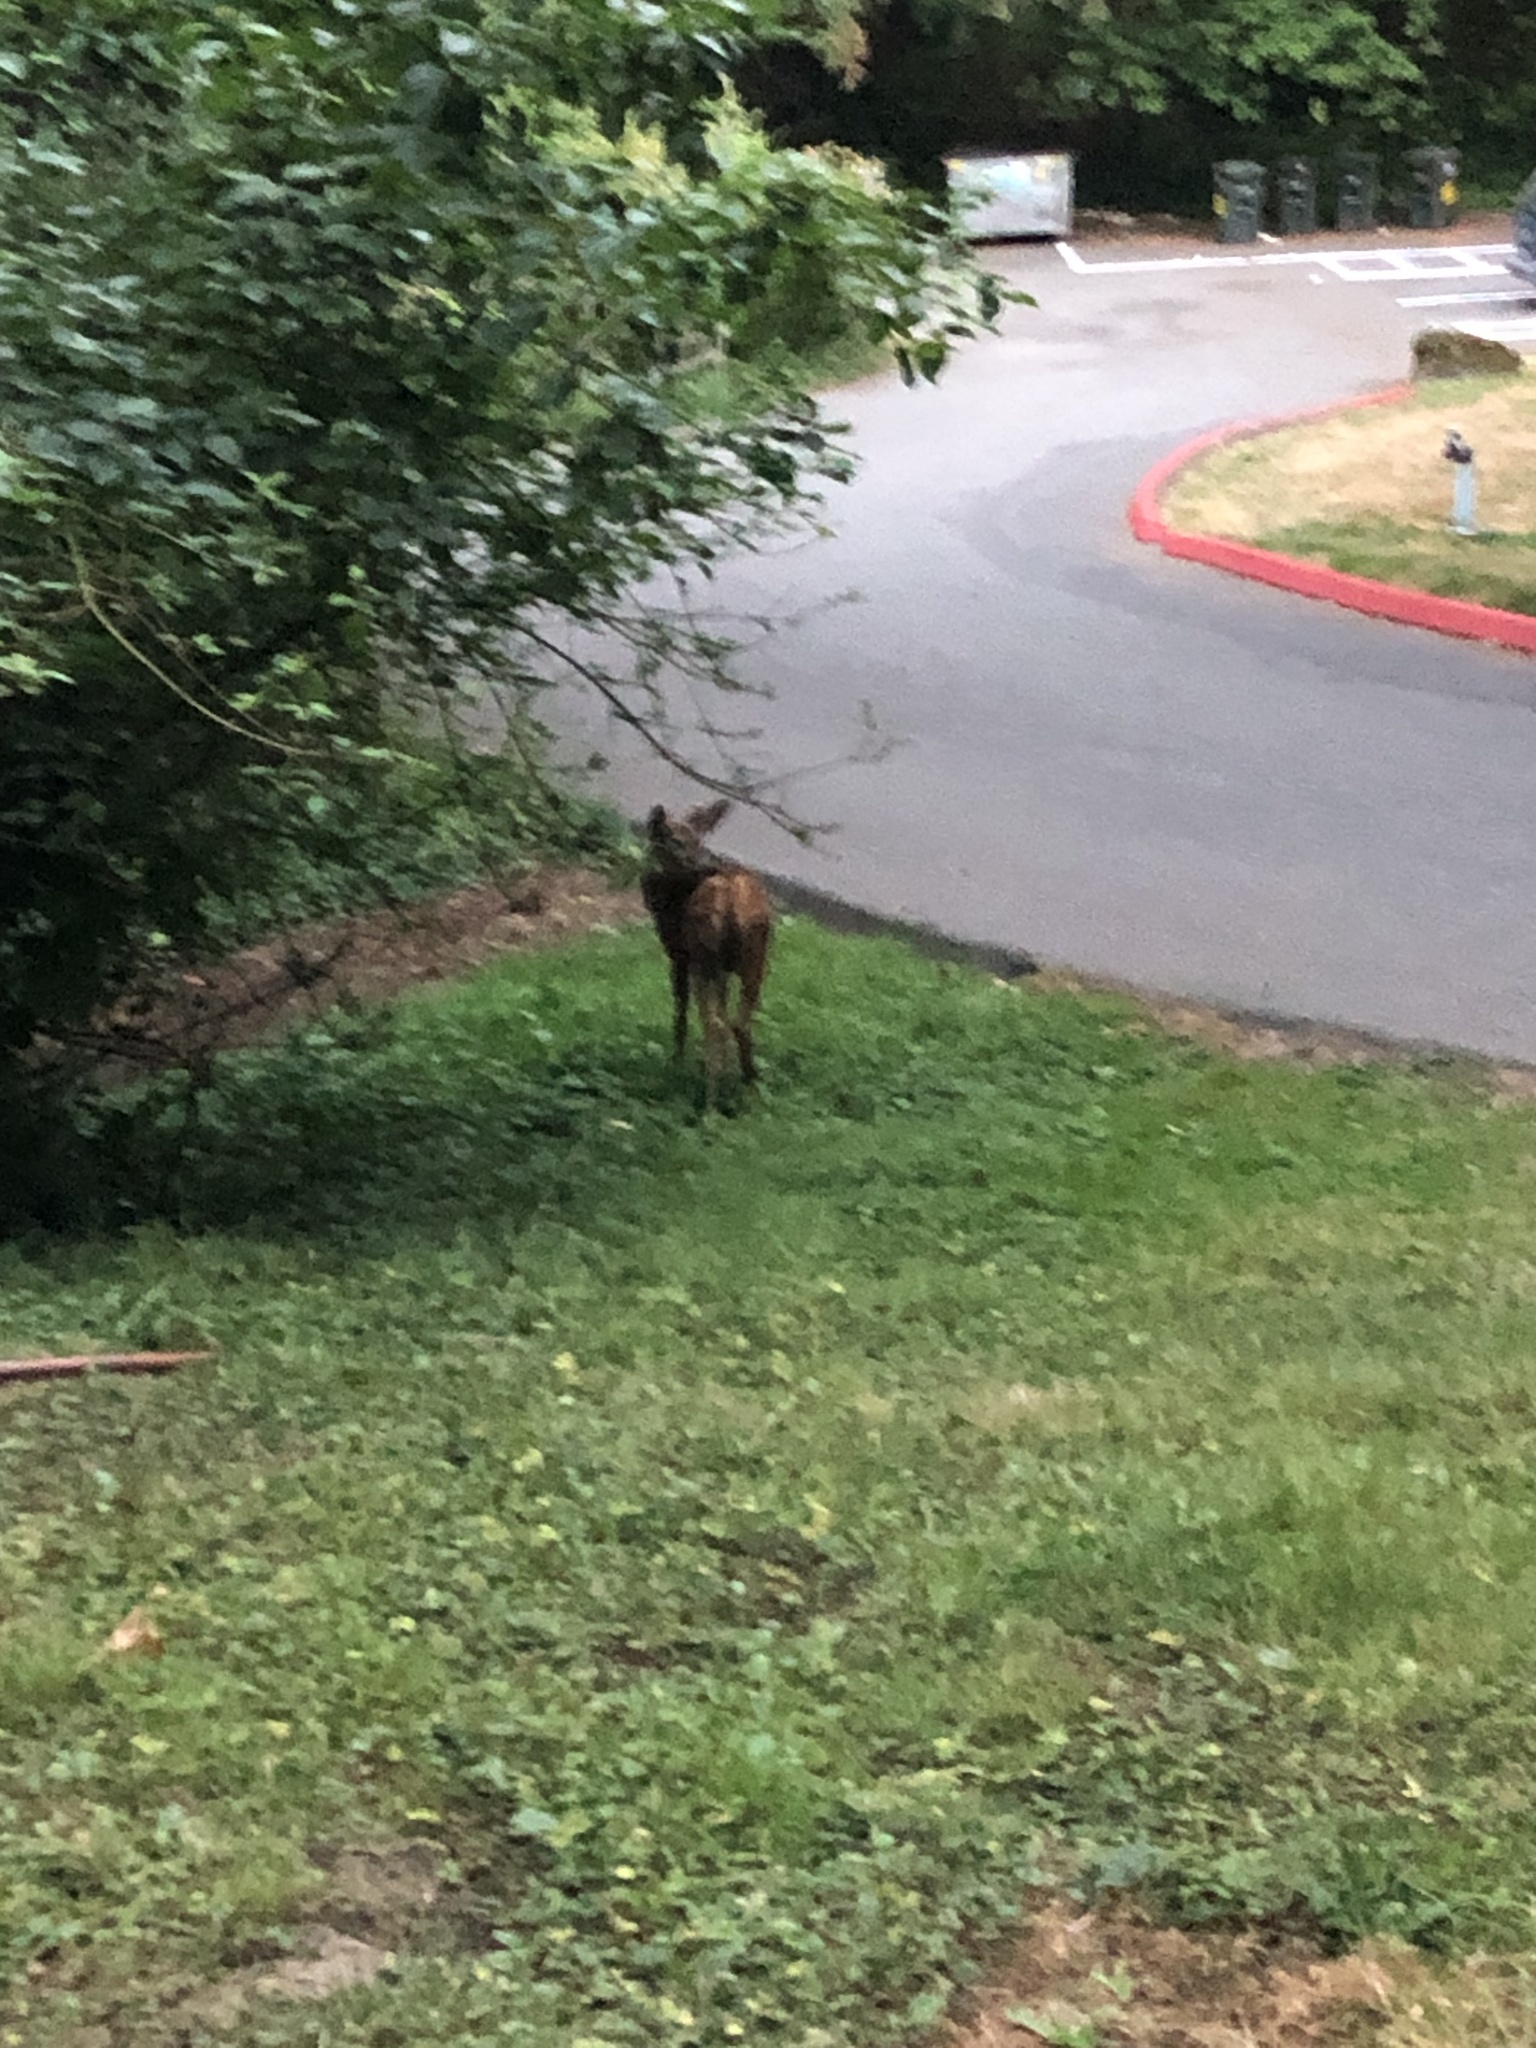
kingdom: Animalia
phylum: Chordata
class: Mammalia
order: Artiodactyla
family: Cervidae
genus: Odocoileus
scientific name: Odocoileus hemionus
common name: Mule deer
